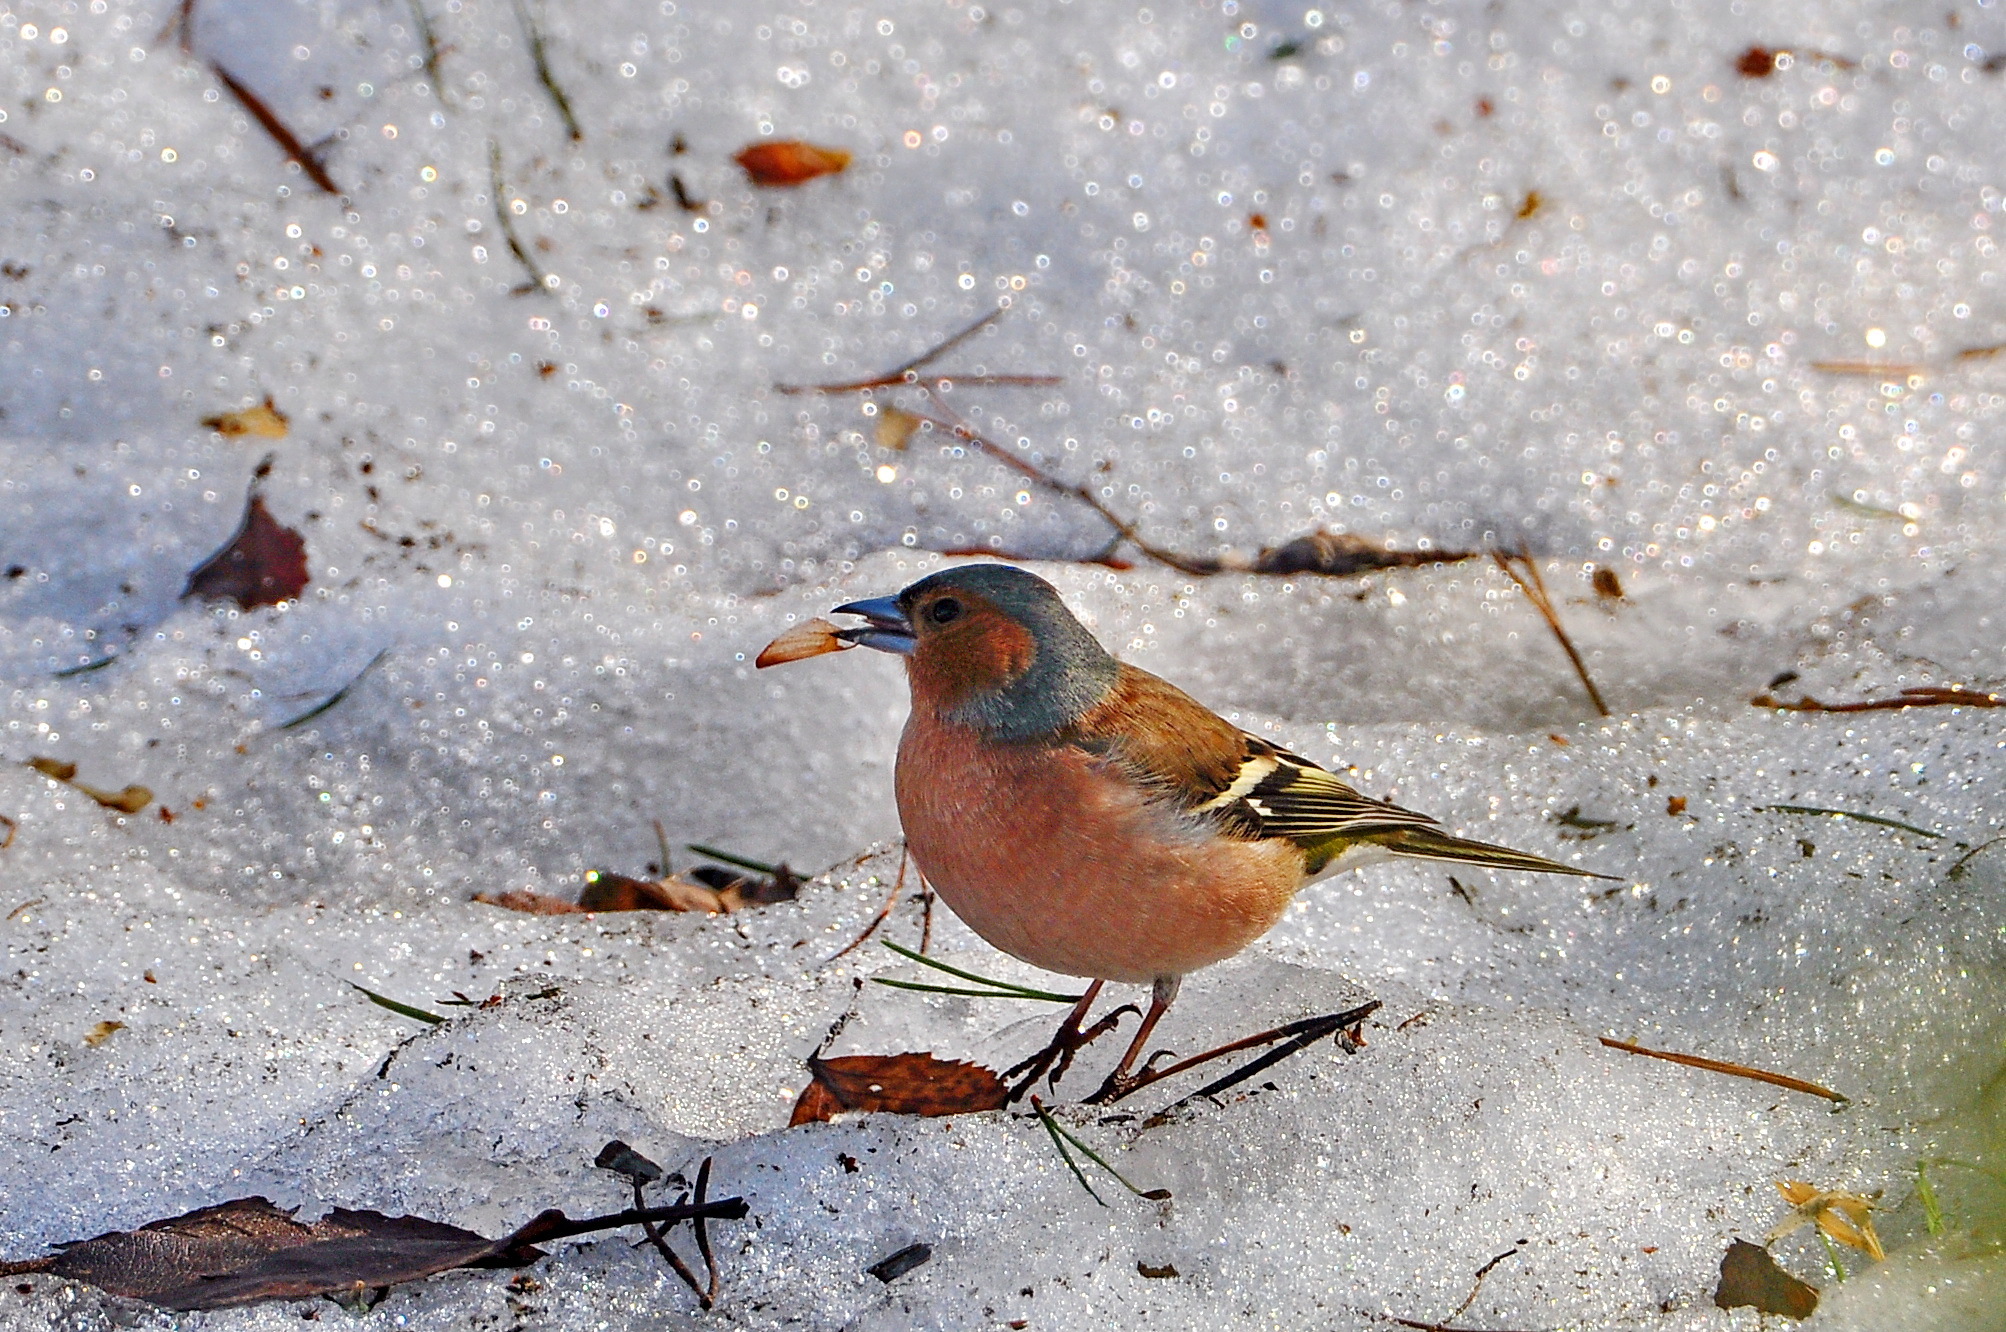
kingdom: Animalia
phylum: Chordata
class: Aves
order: Passeriformes
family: Fringillidae
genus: Fringilla
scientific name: Fringilla coelebs
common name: Common chaffinch
